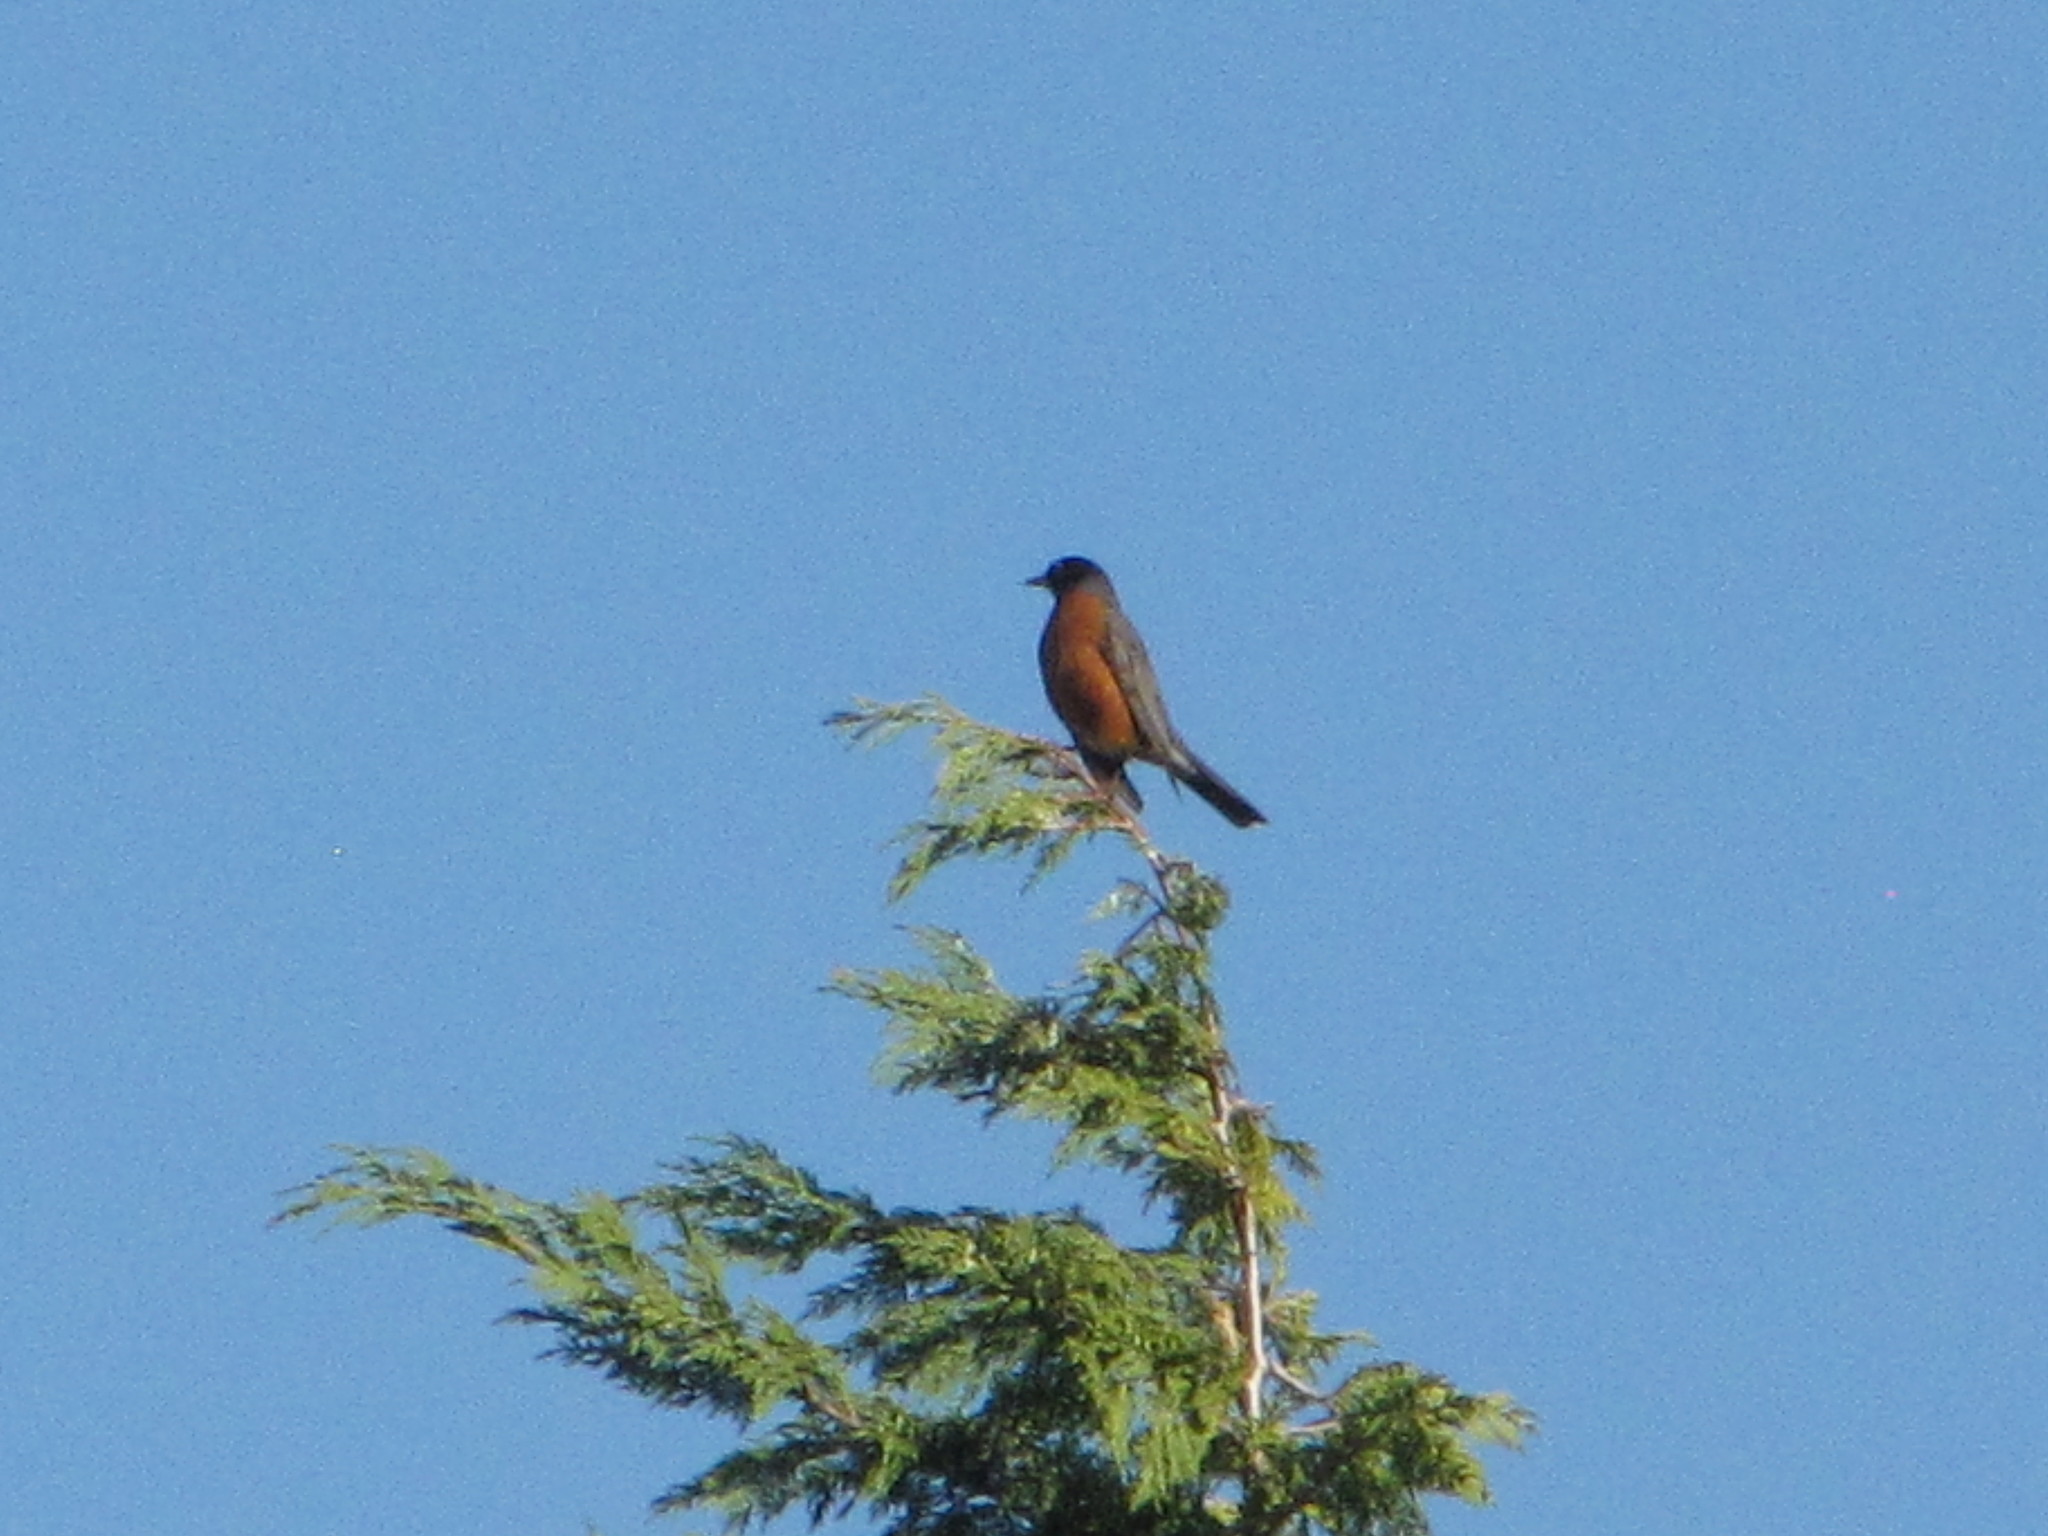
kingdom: Animalia
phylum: Chordata
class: Aves
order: Passeriformes
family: Turdidae
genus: Turdus
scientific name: Turdus migratorius
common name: American robin
